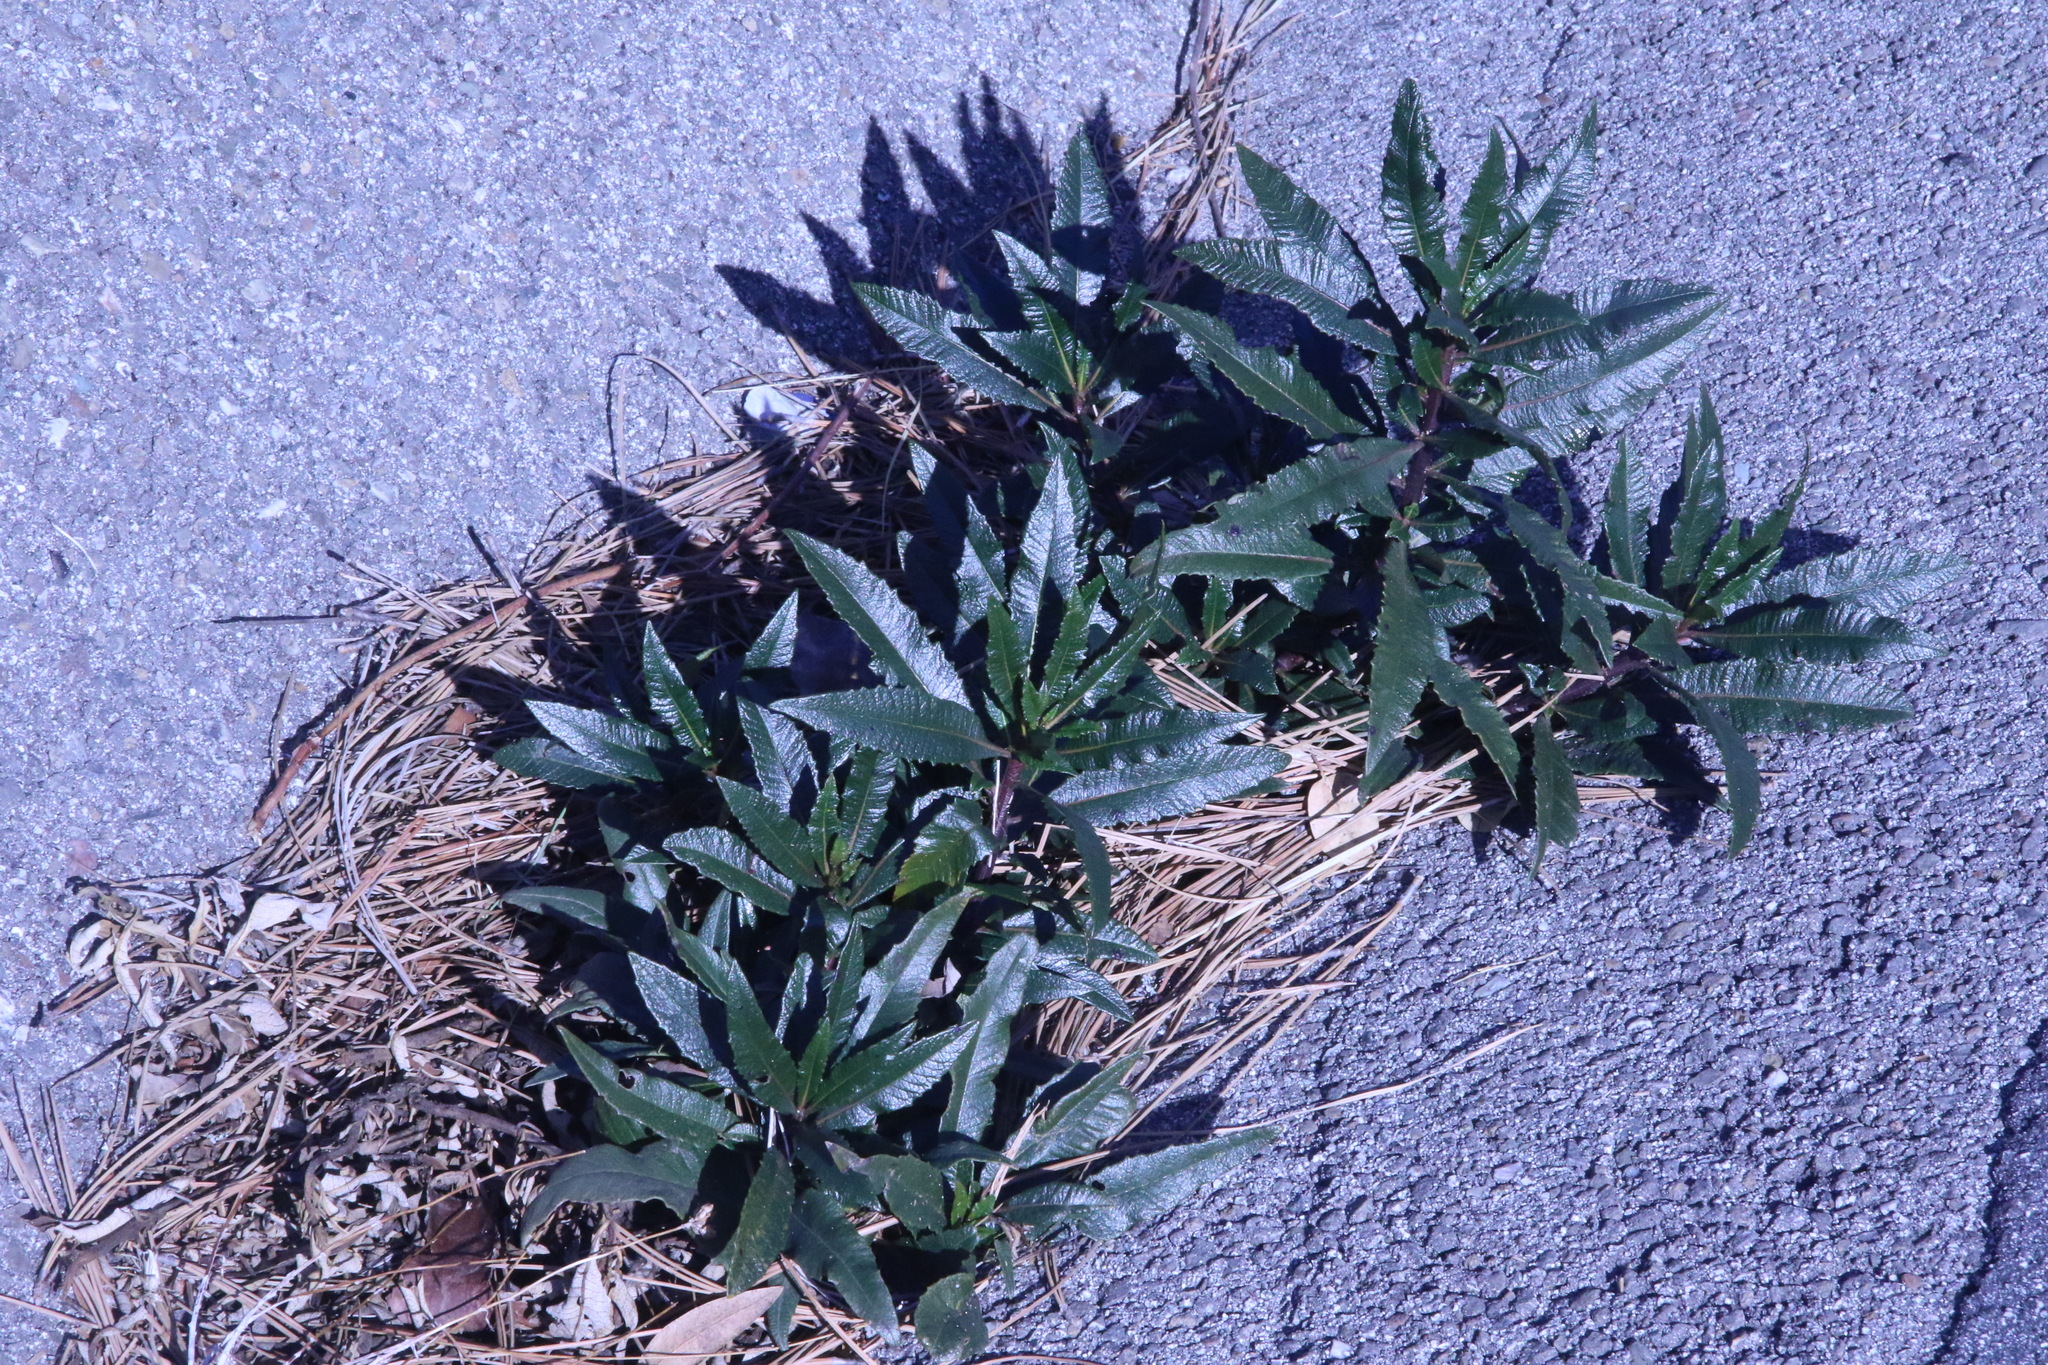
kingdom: Plantae
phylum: Tracheophyta
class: Magnoliopsida
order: Boraginales
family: Namaceae
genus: Eriodictyon
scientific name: Eriodictyon californicum
